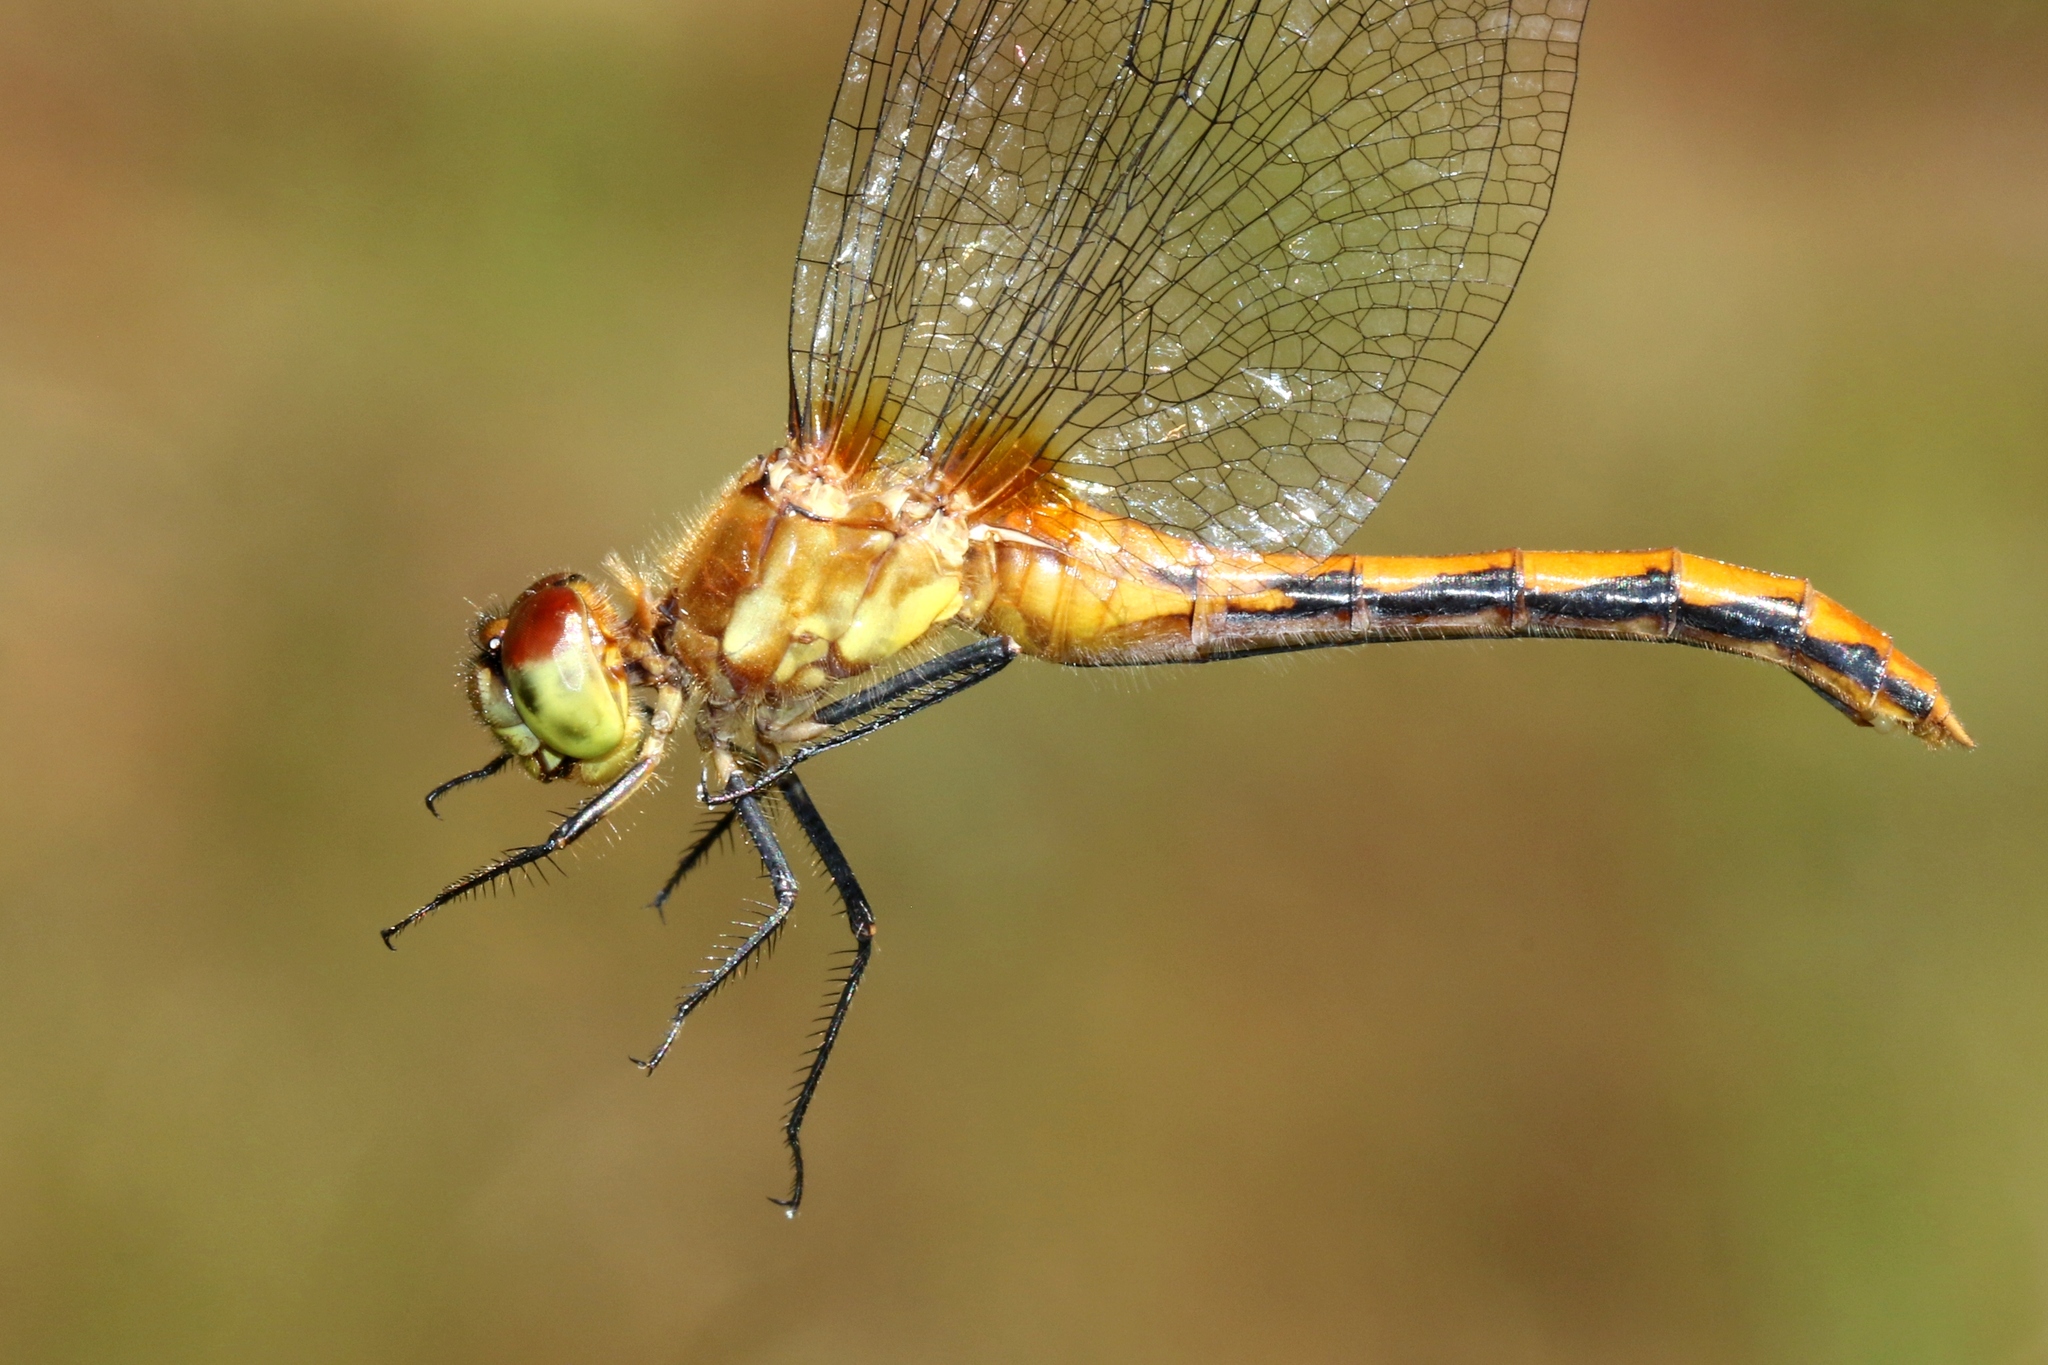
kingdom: Animalia
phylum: Arthropoda
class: Insecta
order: Odonata
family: Libellulidae
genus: Sympetrum
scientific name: Sympetrum obtrusum
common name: White-faced meadowhawk
